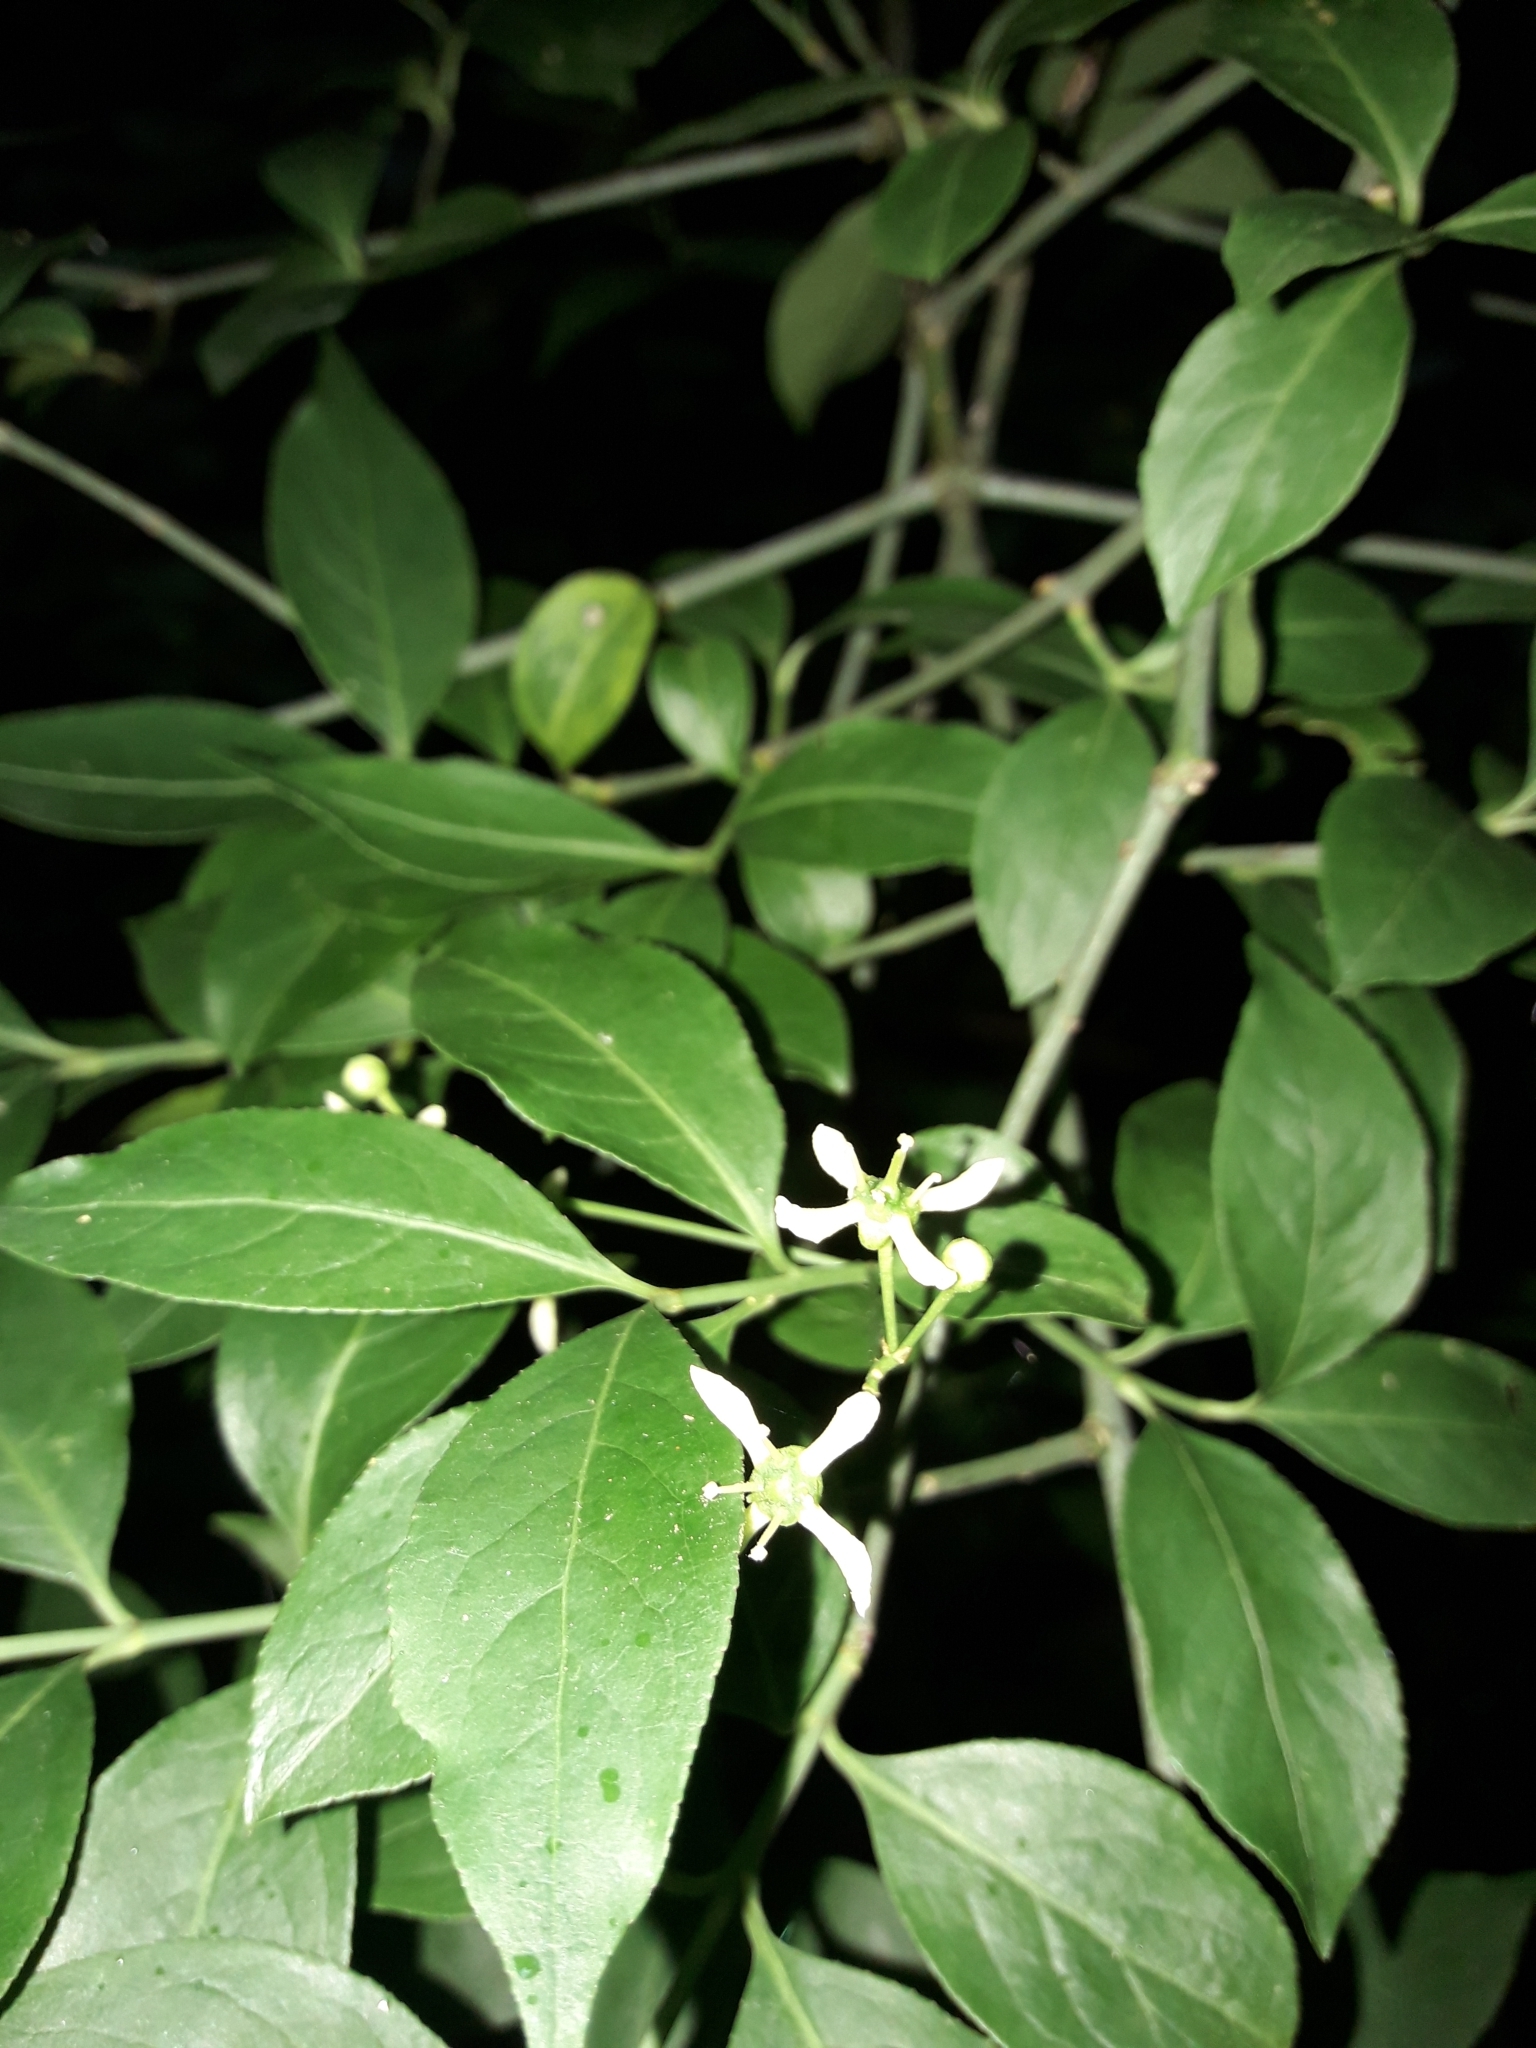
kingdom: Plantae
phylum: Tracheophyta
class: Magnoliopsida
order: Celastrales
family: Celastraceae
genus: Euonymus
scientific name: Euonymus europaeus
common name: Spindle
